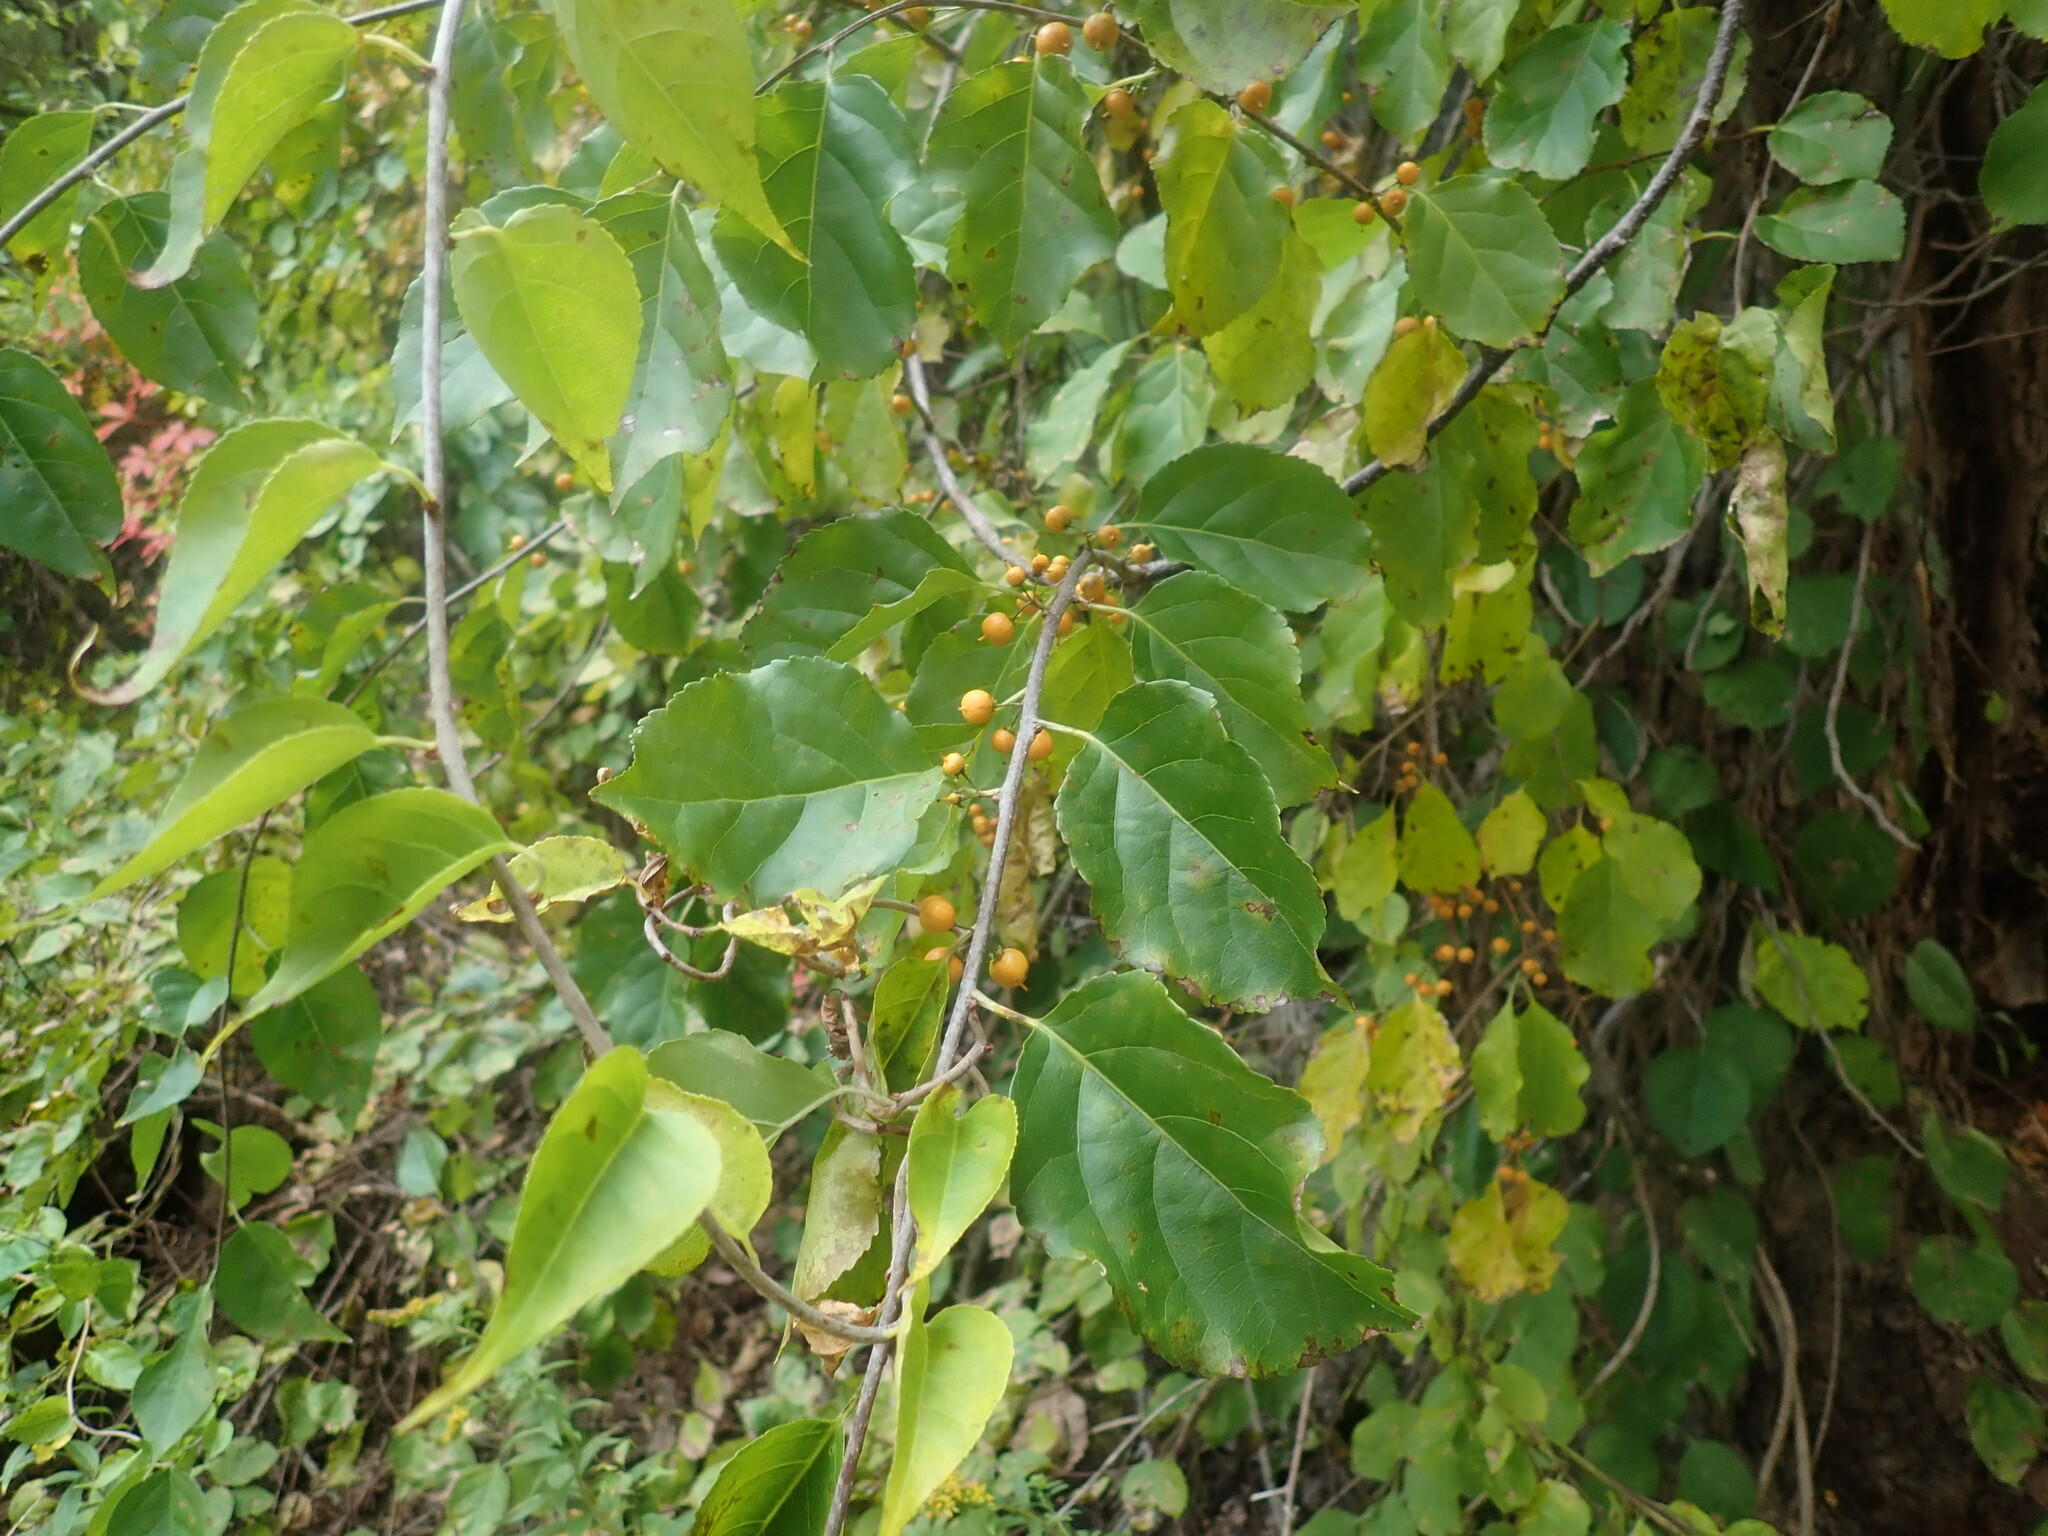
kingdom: Plantae
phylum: Tracheophyta
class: Magnoliopsida
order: Celastrales
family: Celastraceae
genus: Celastrus
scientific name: Celastrus orbiculatus
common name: Oriental bittersweet
